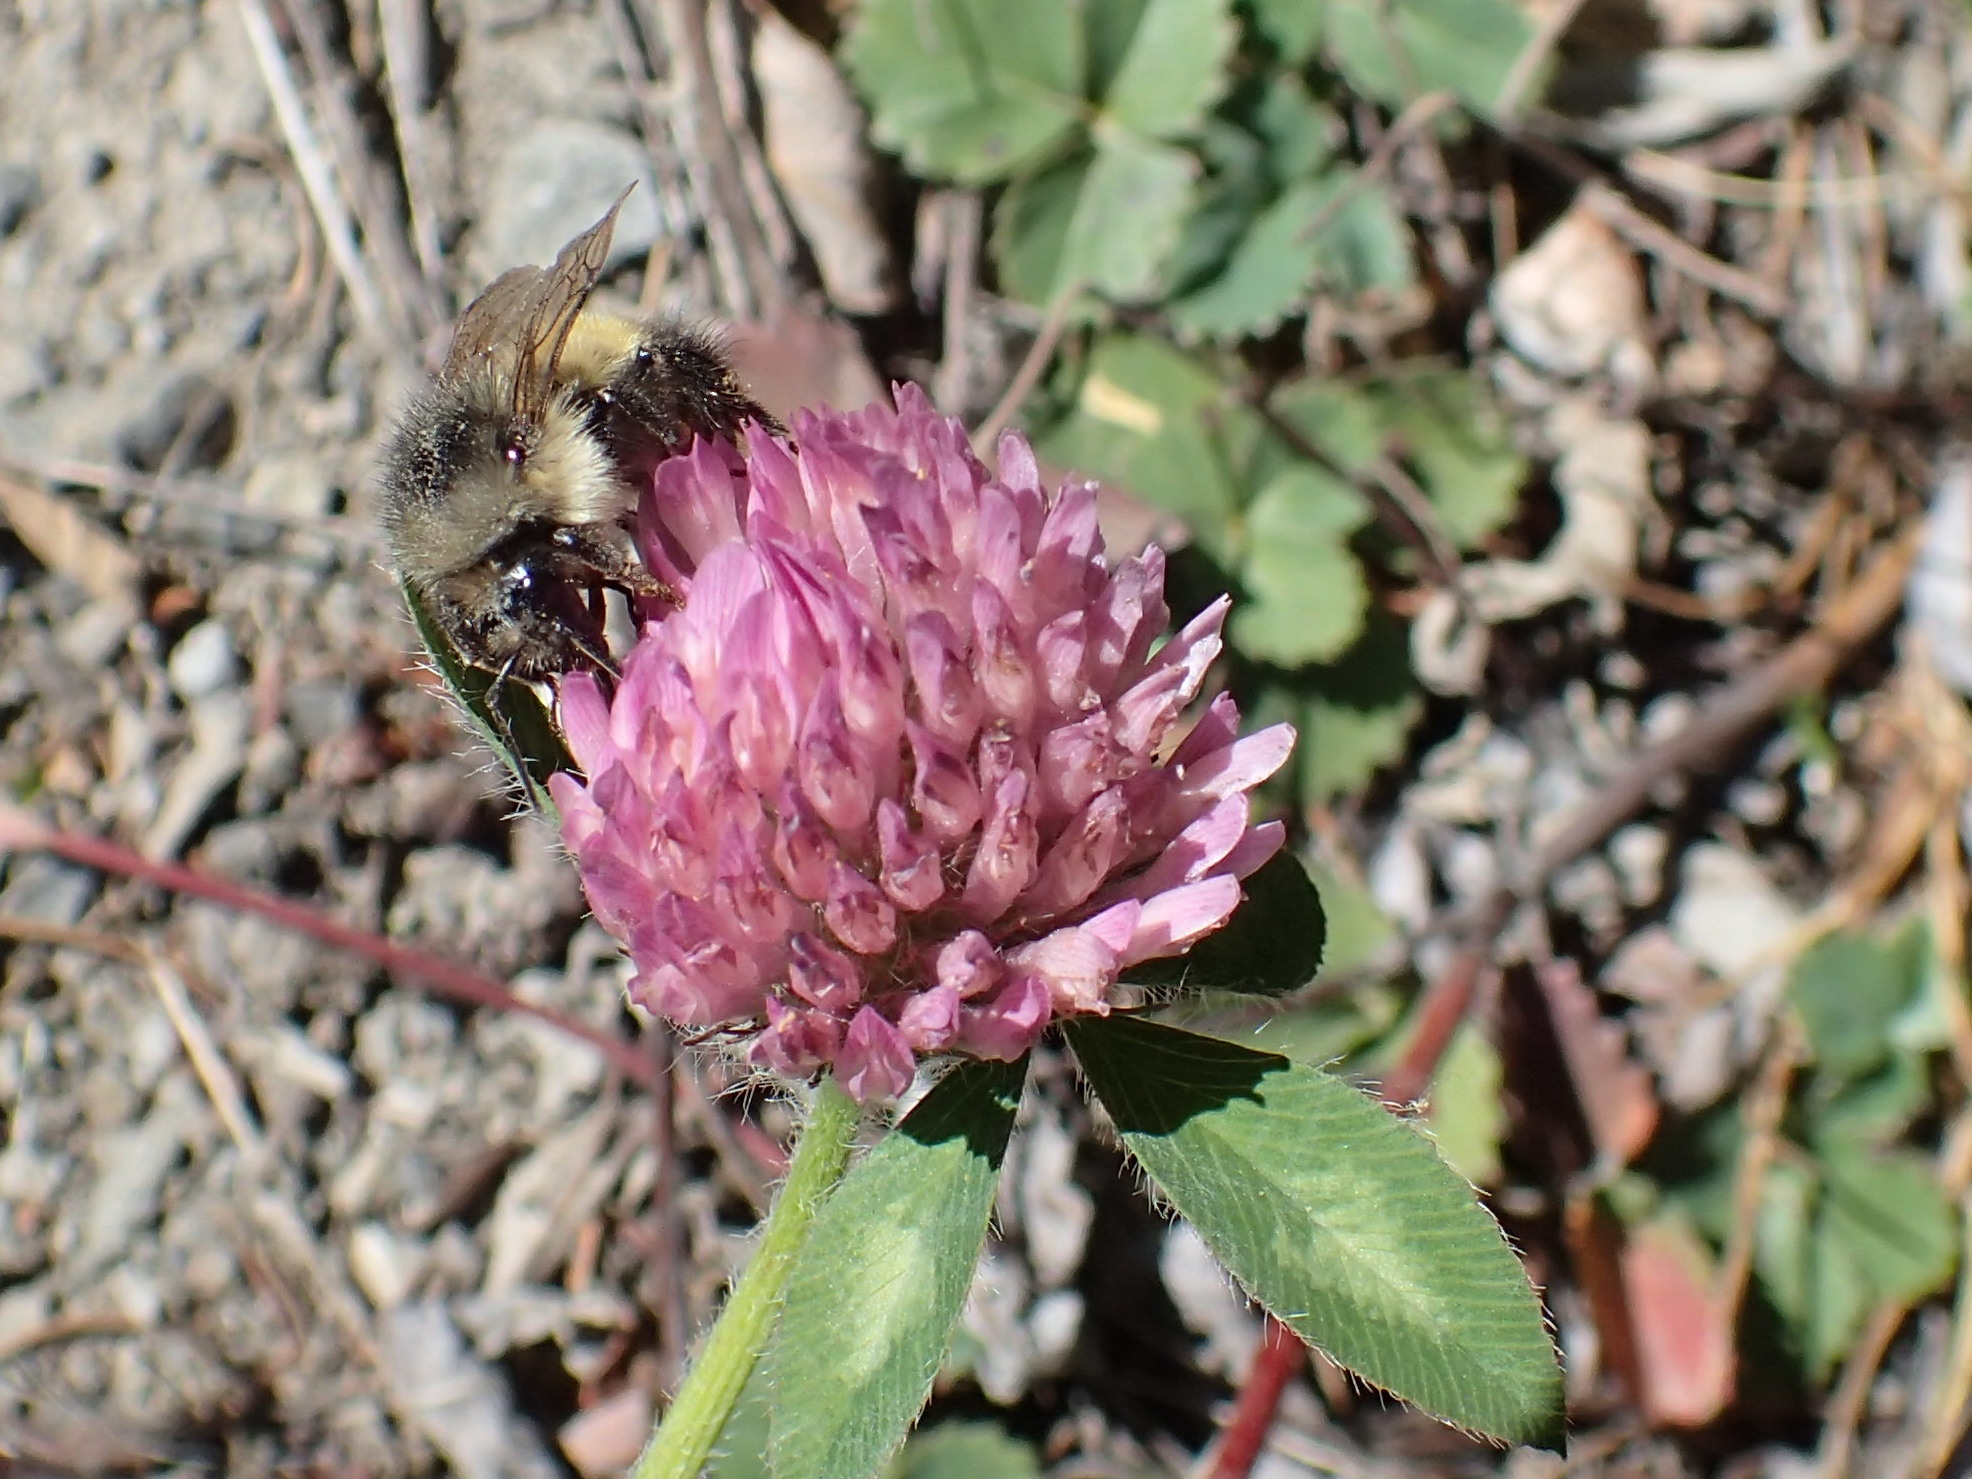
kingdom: Plantae
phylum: Tracheophyta
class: Magnoliopsida
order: Fabales
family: Fabaceae
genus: Trifolium
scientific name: Trifolium pratense
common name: Red clover
